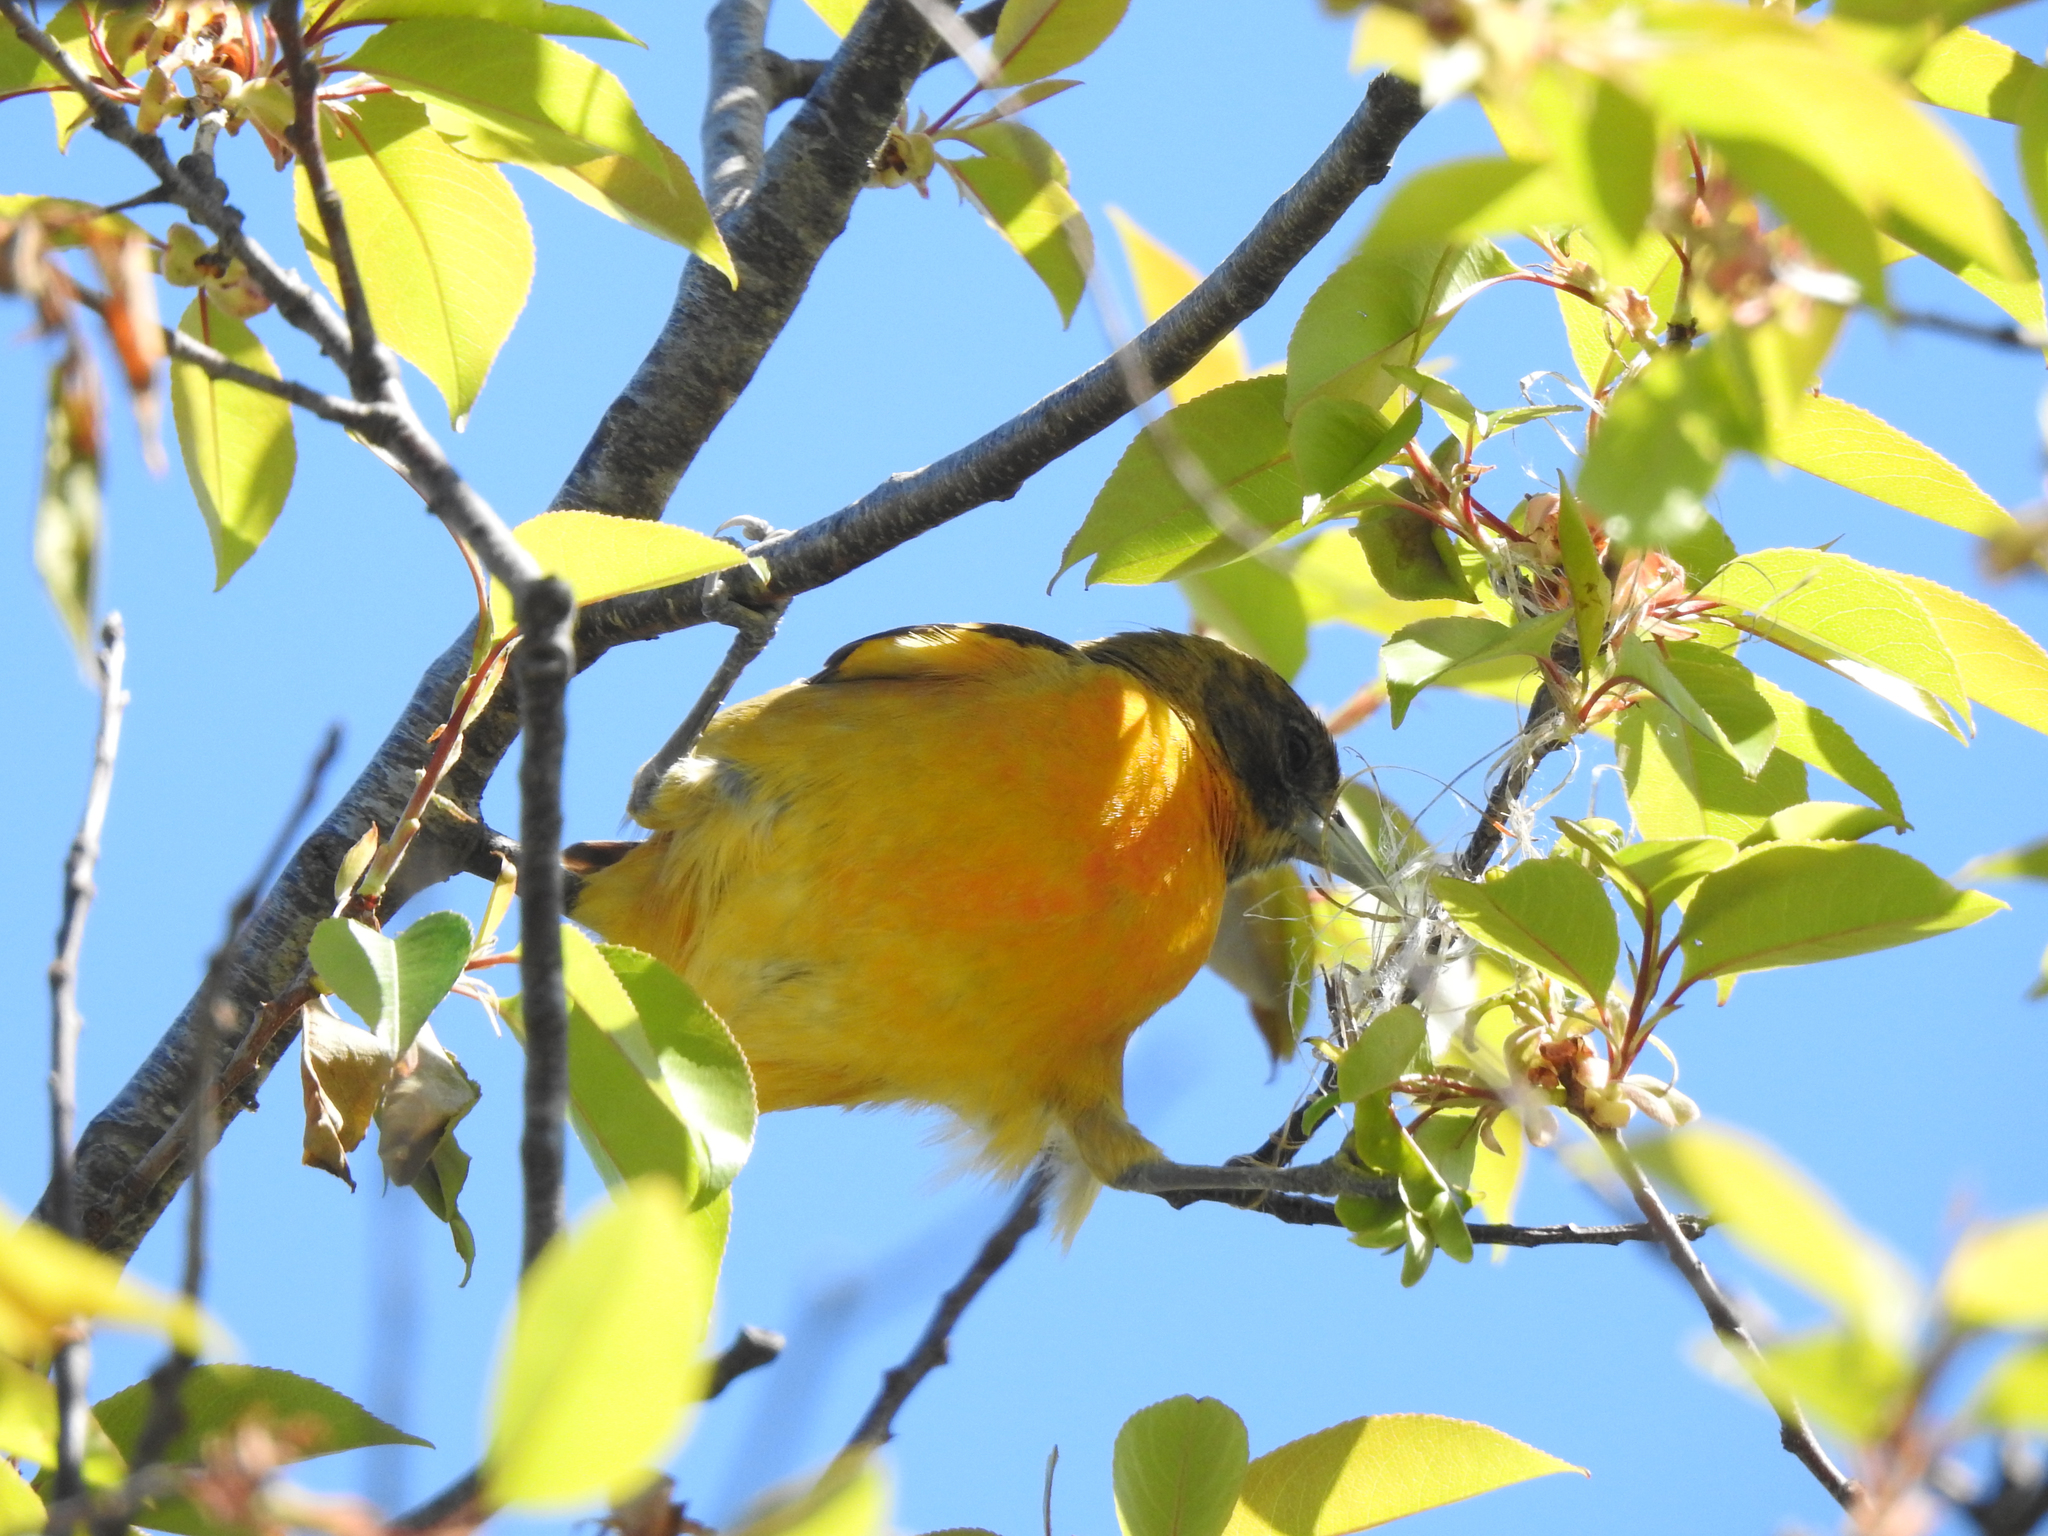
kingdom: Animalia
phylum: Chordata
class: Aves
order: Passeriformes
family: Icteridae
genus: Icterus
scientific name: Icterus galbula
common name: Baltimore oriole
